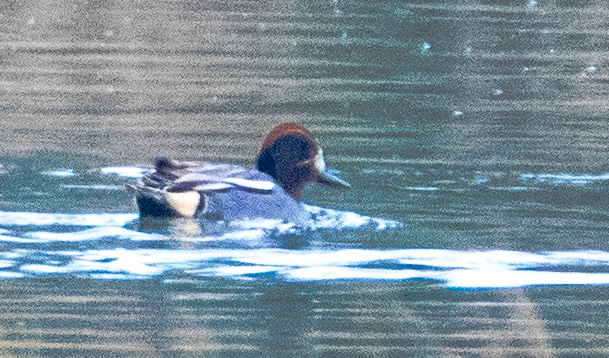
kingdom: Animalia
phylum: Chordata
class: Aves
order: Anseriformes
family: Anatidae
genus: Anas
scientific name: Anas crecca
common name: Eurasian teal
